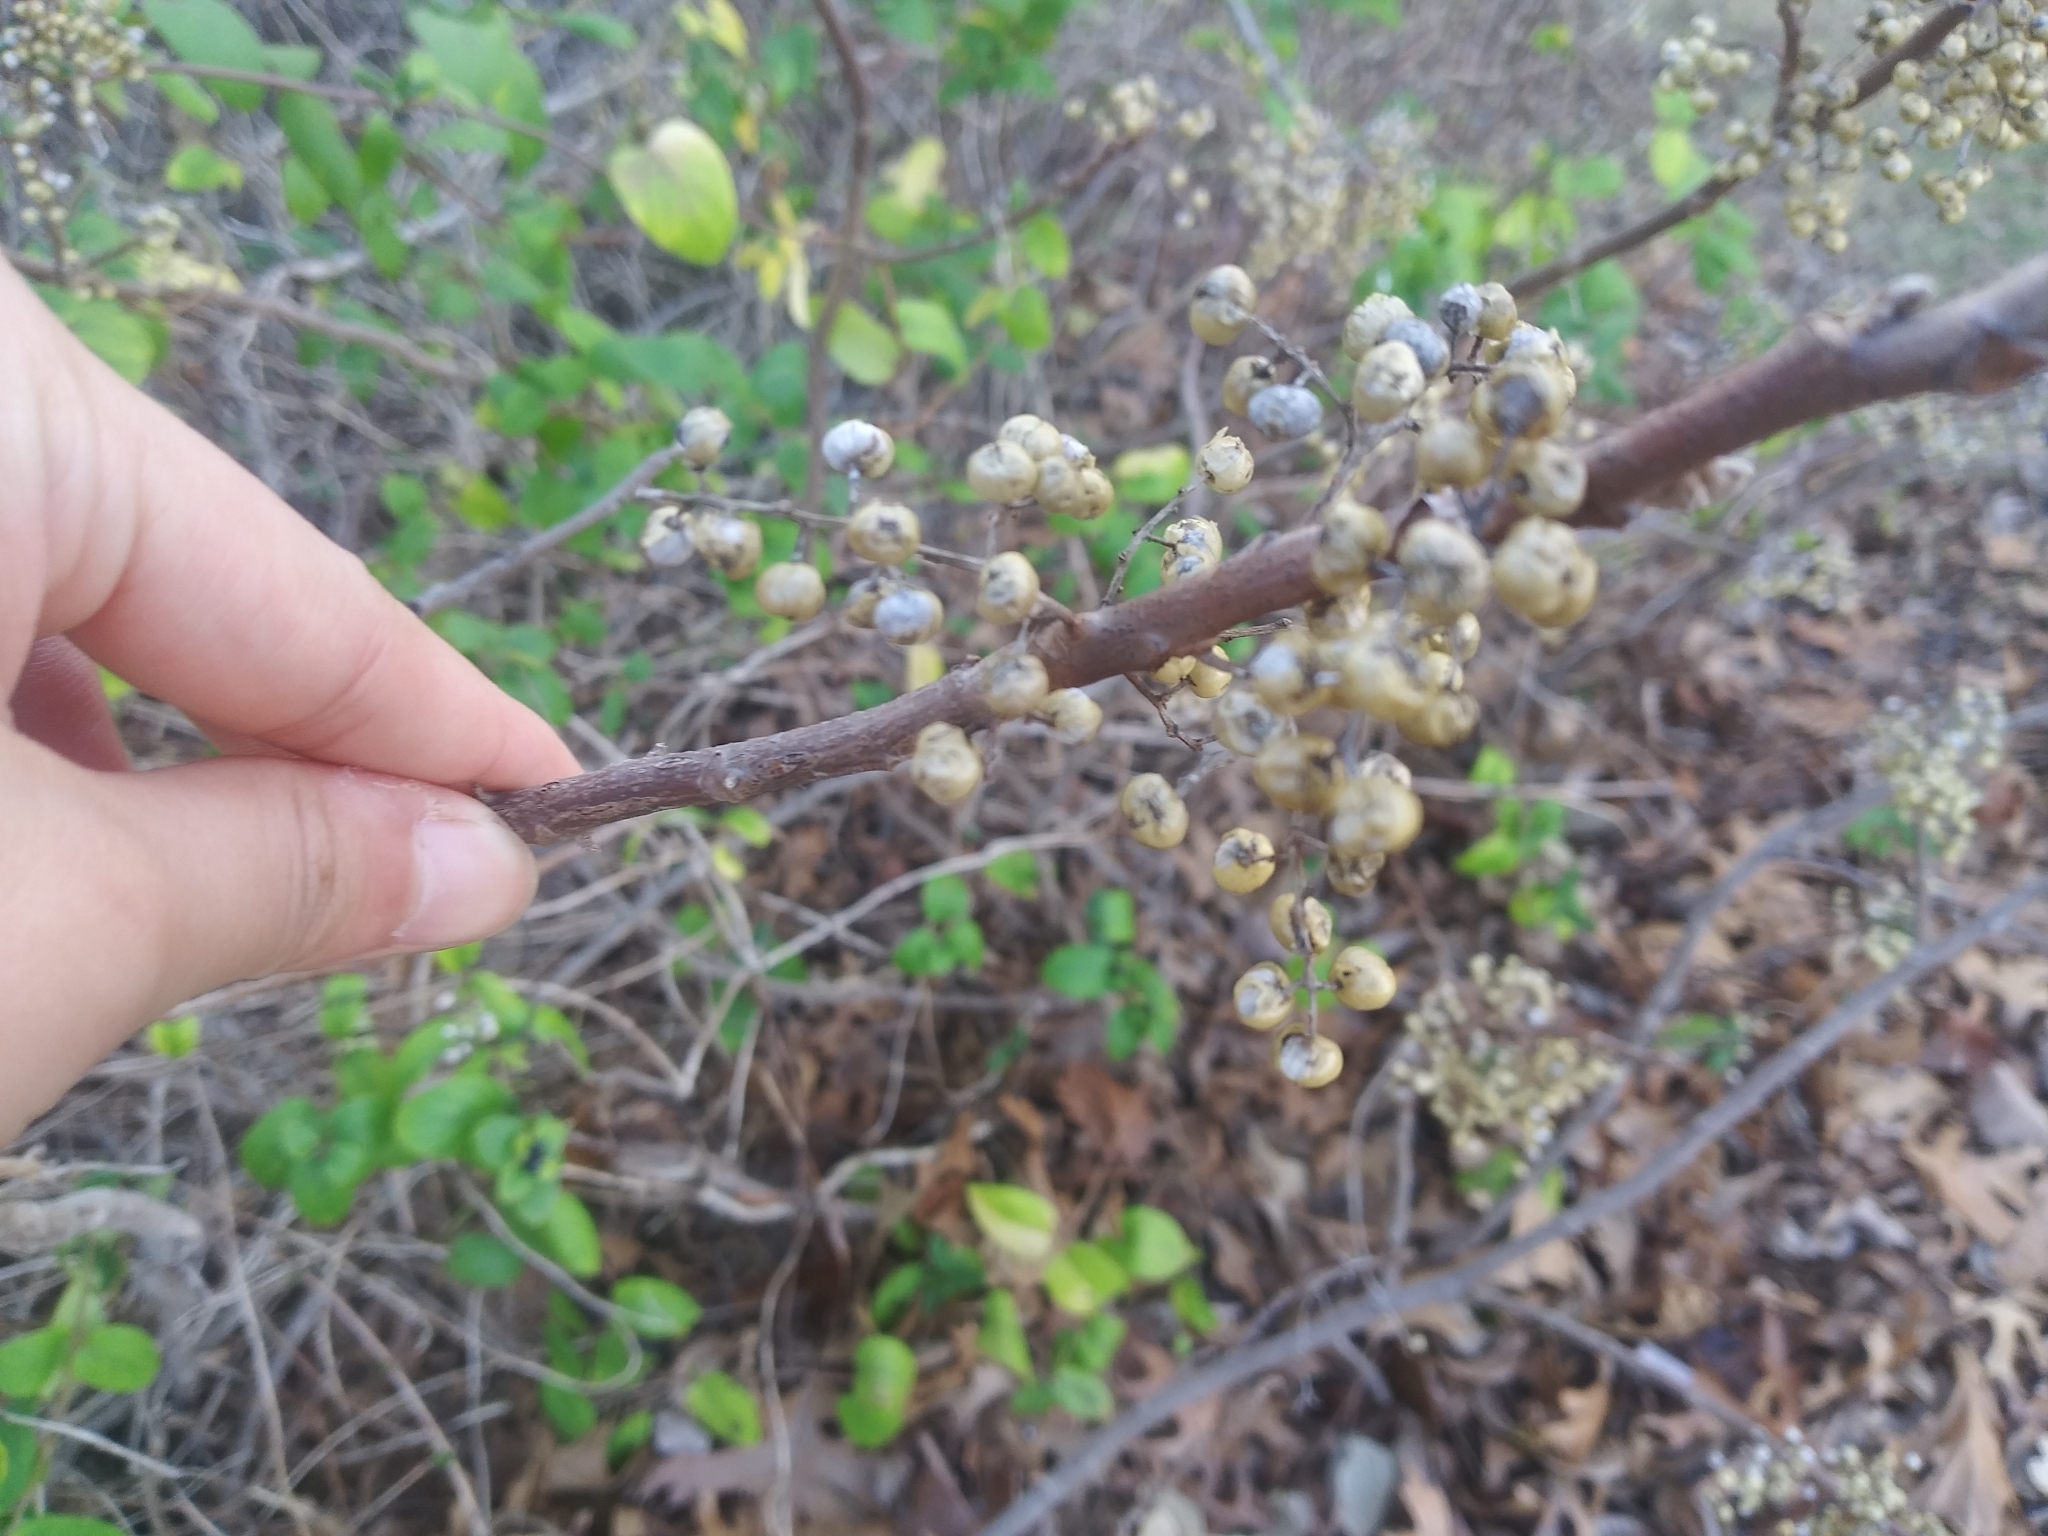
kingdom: Plantae
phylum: Tracheophyta
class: Magnoliopsida
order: Sapindales
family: Anacardiaceae
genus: Toxicodendron
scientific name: Toxicodendron radicans
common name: Poison ivy
